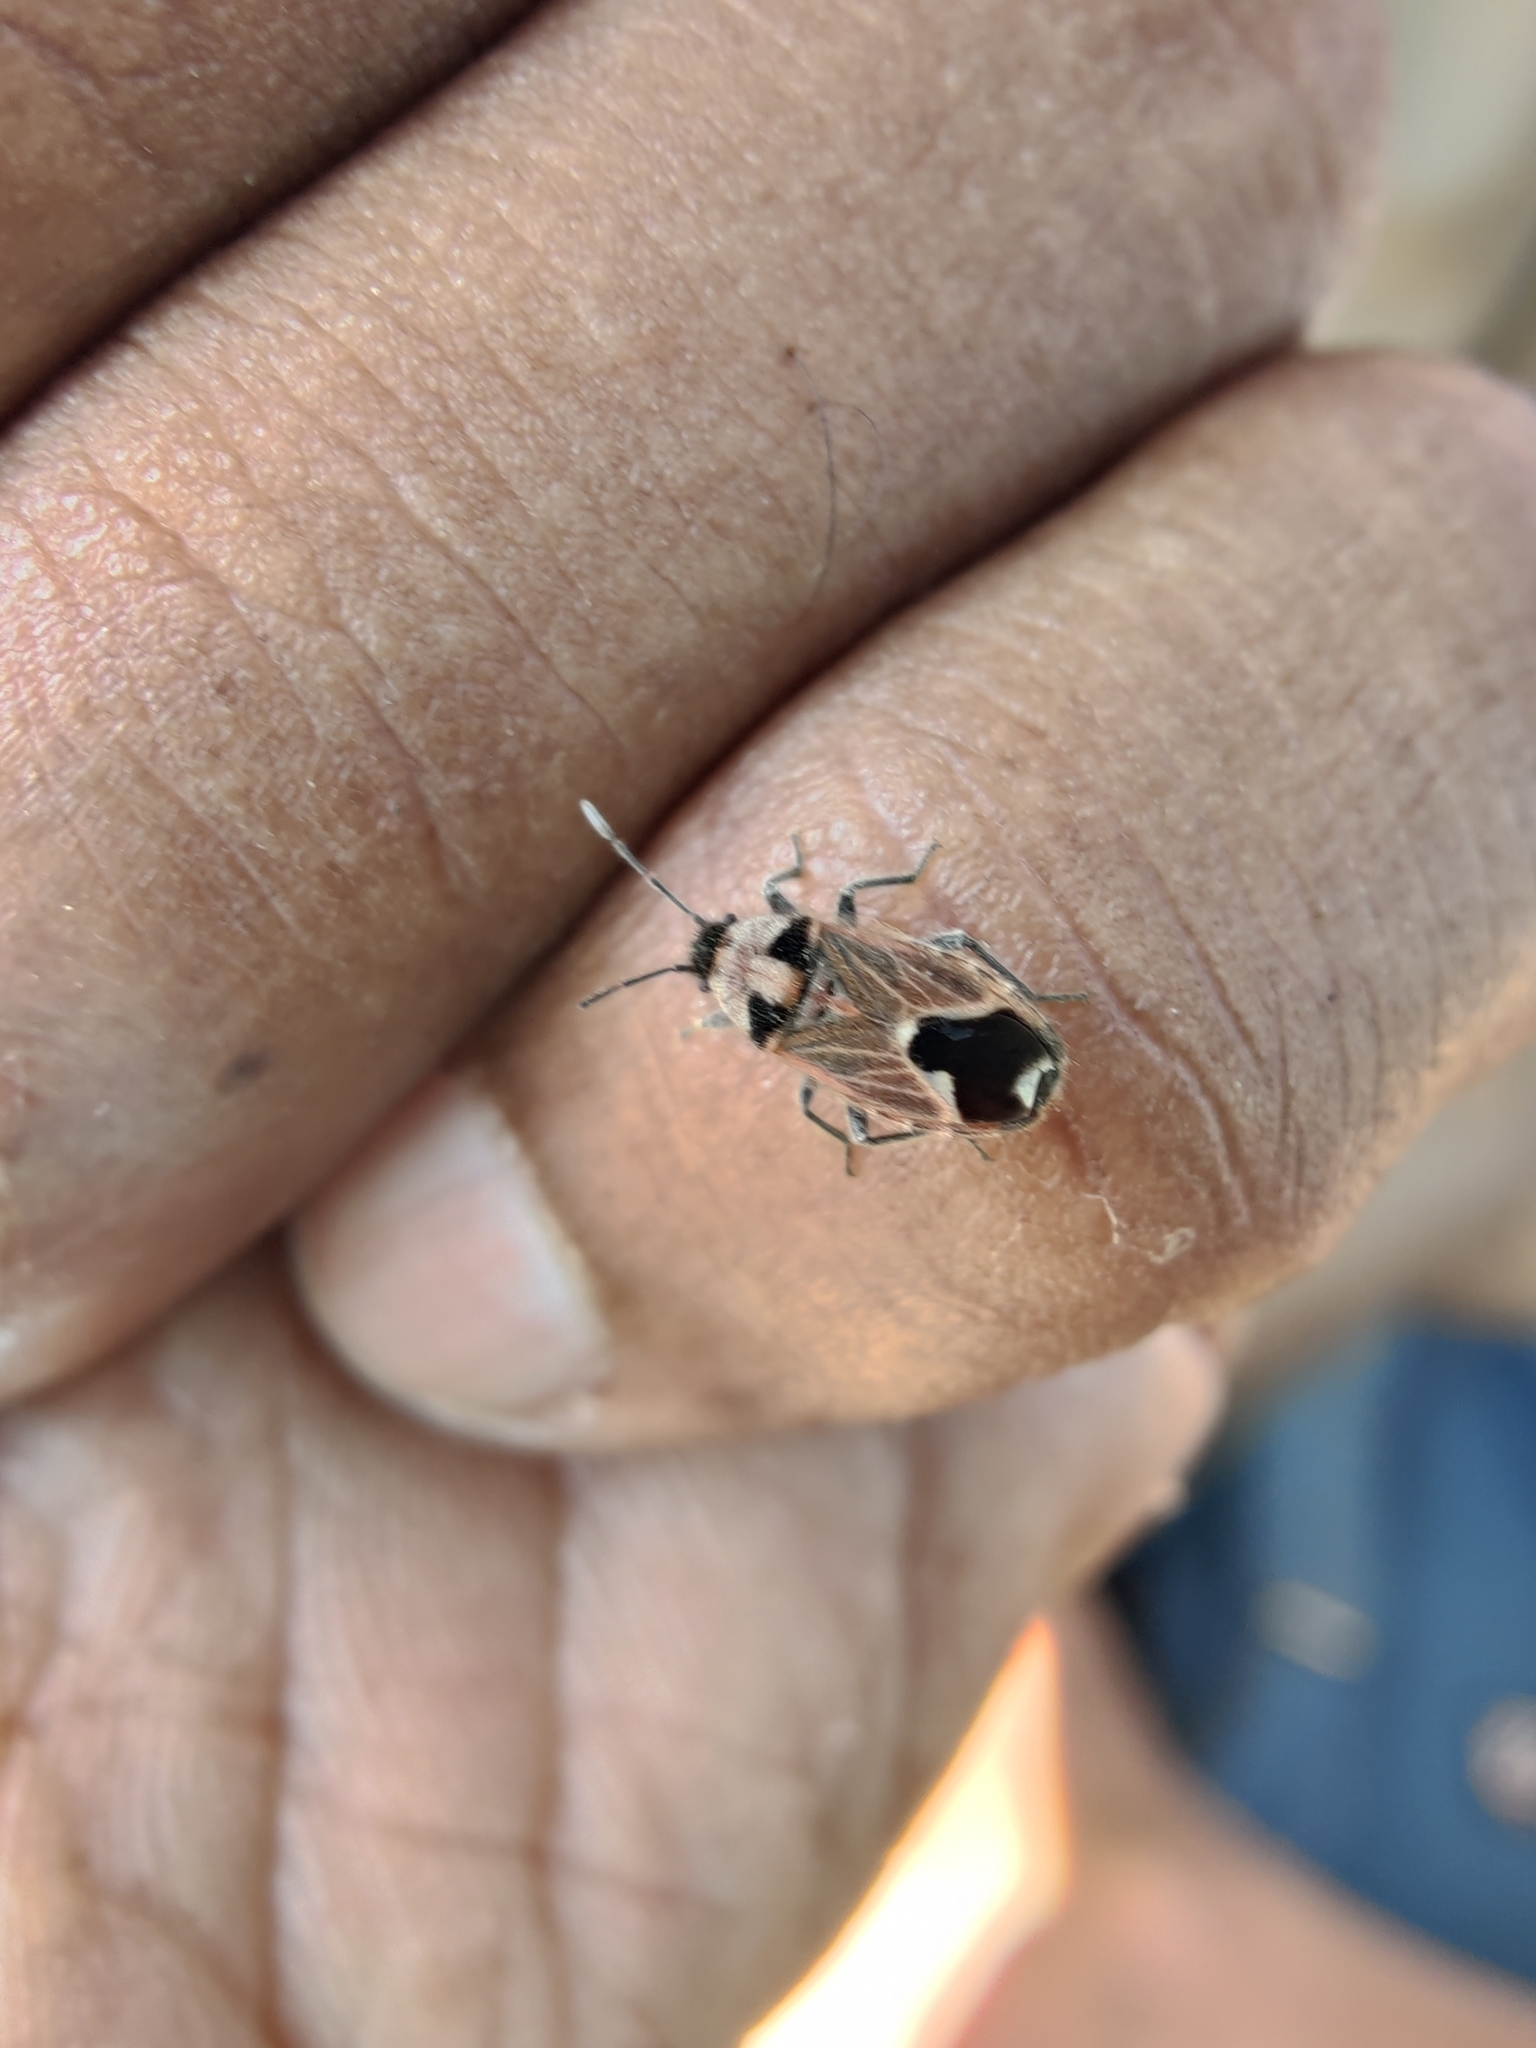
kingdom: Animalia
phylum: Arthropoda
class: Insecta
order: Hemiptera
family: Lygaeidae
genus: Melanotelus
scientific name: Melanotelus villosulus
